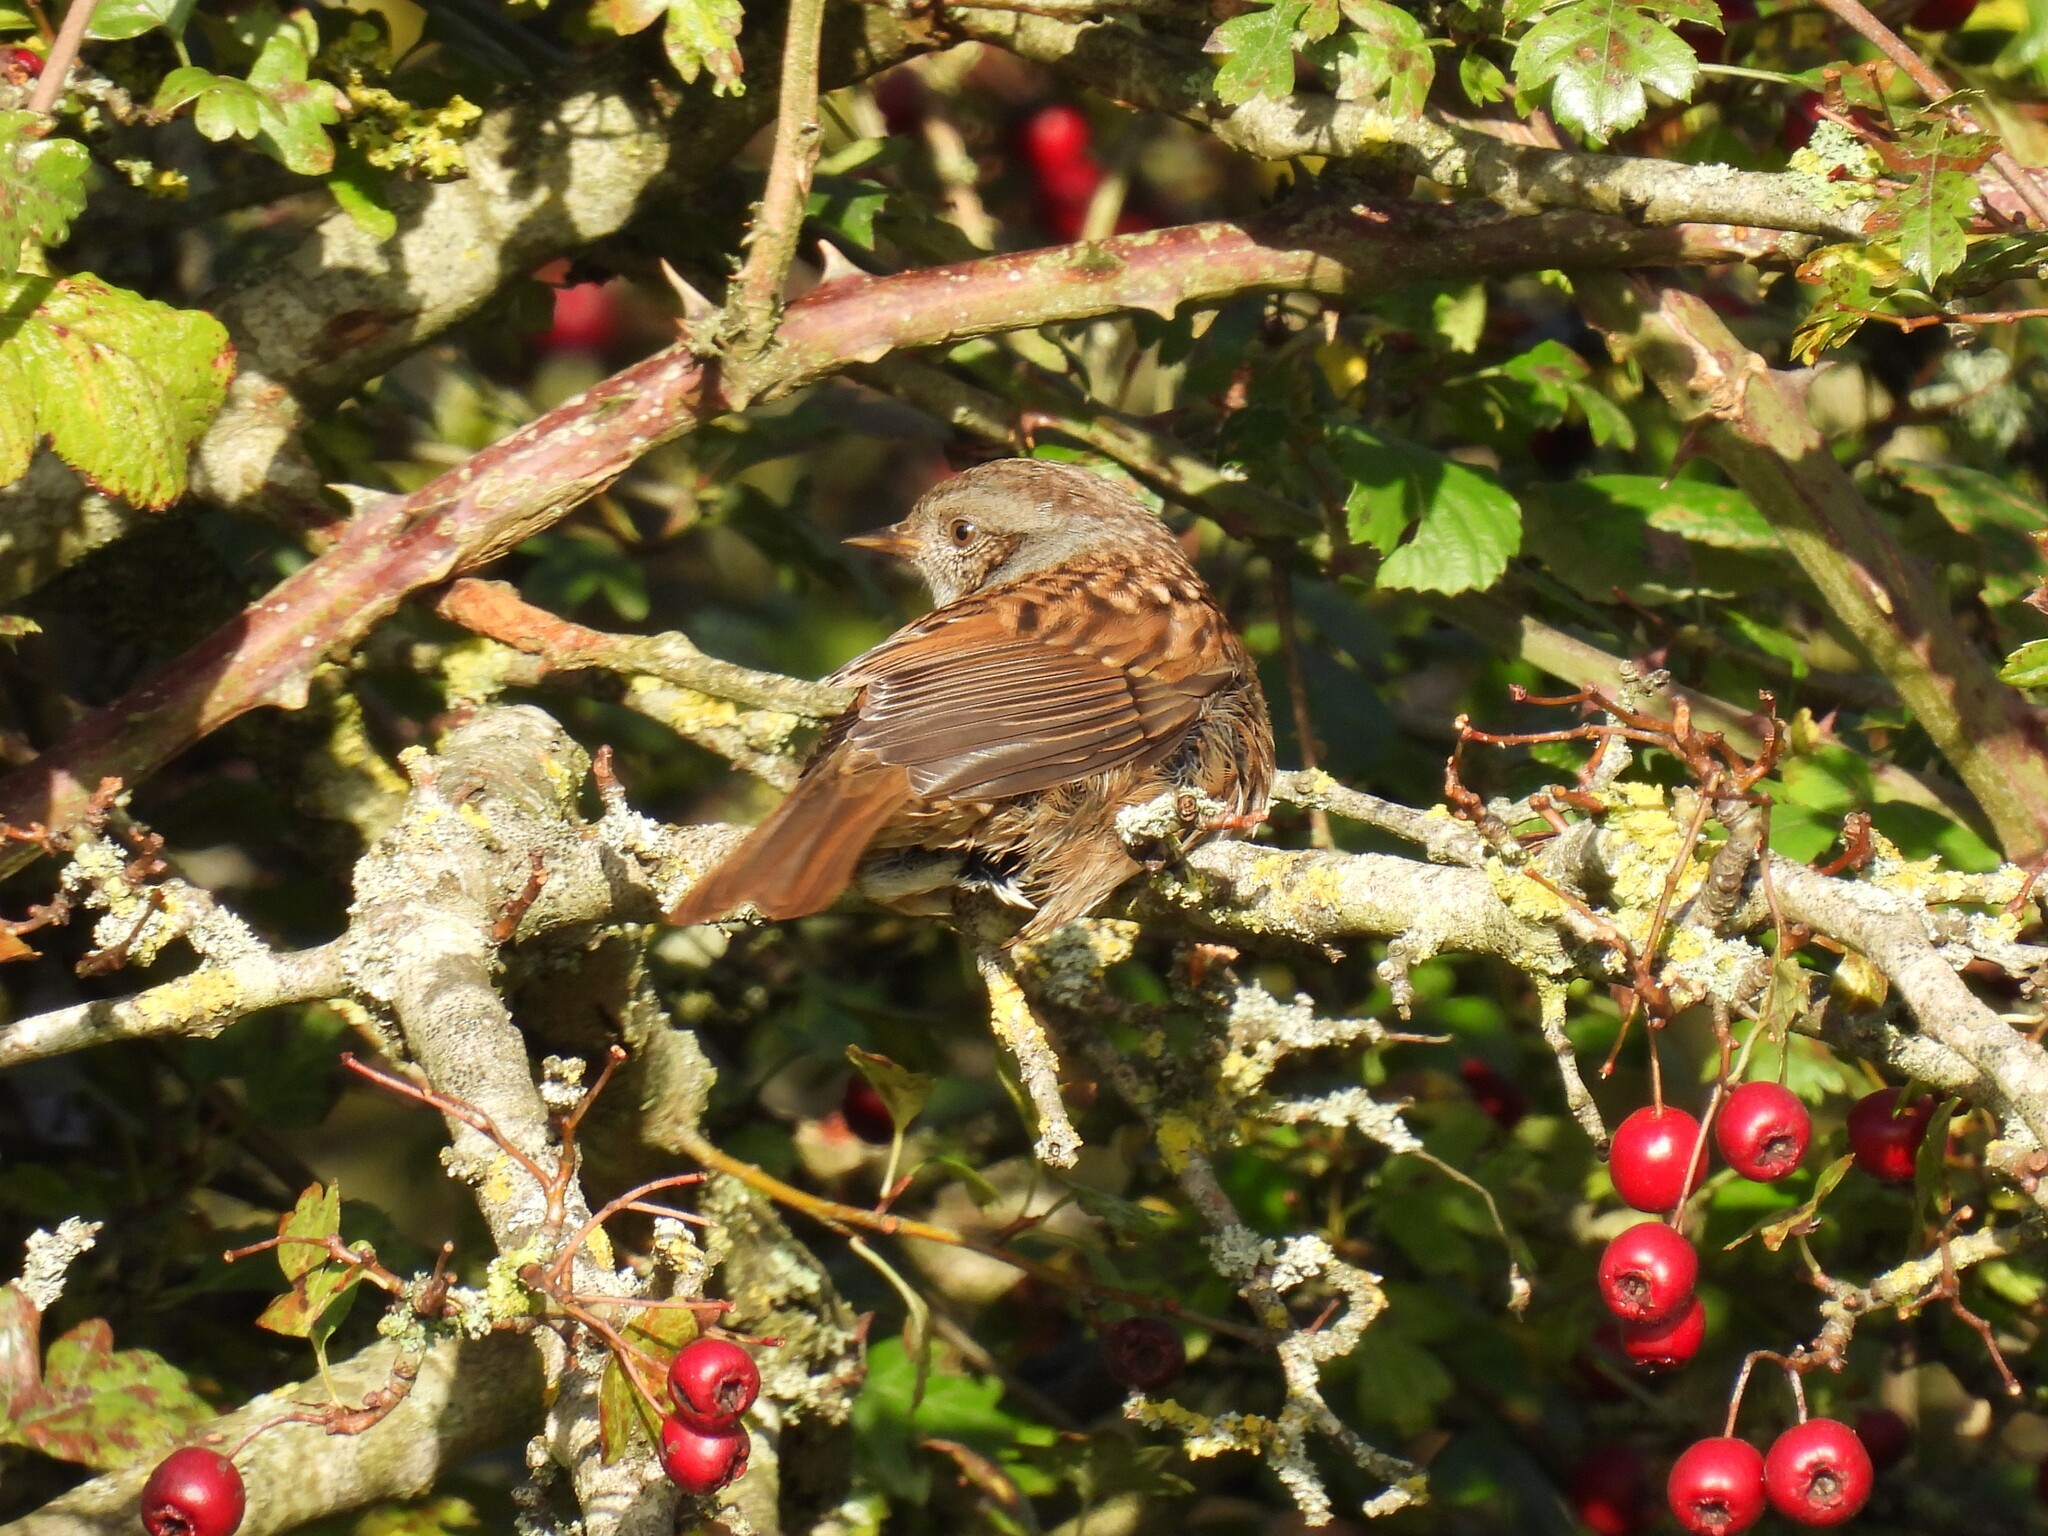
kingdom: Animalia
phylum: Chordata
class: Aves
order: Passeriformes
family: Prunellidae
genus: Prunella
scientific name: Prunella modularis
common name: Dunnock
